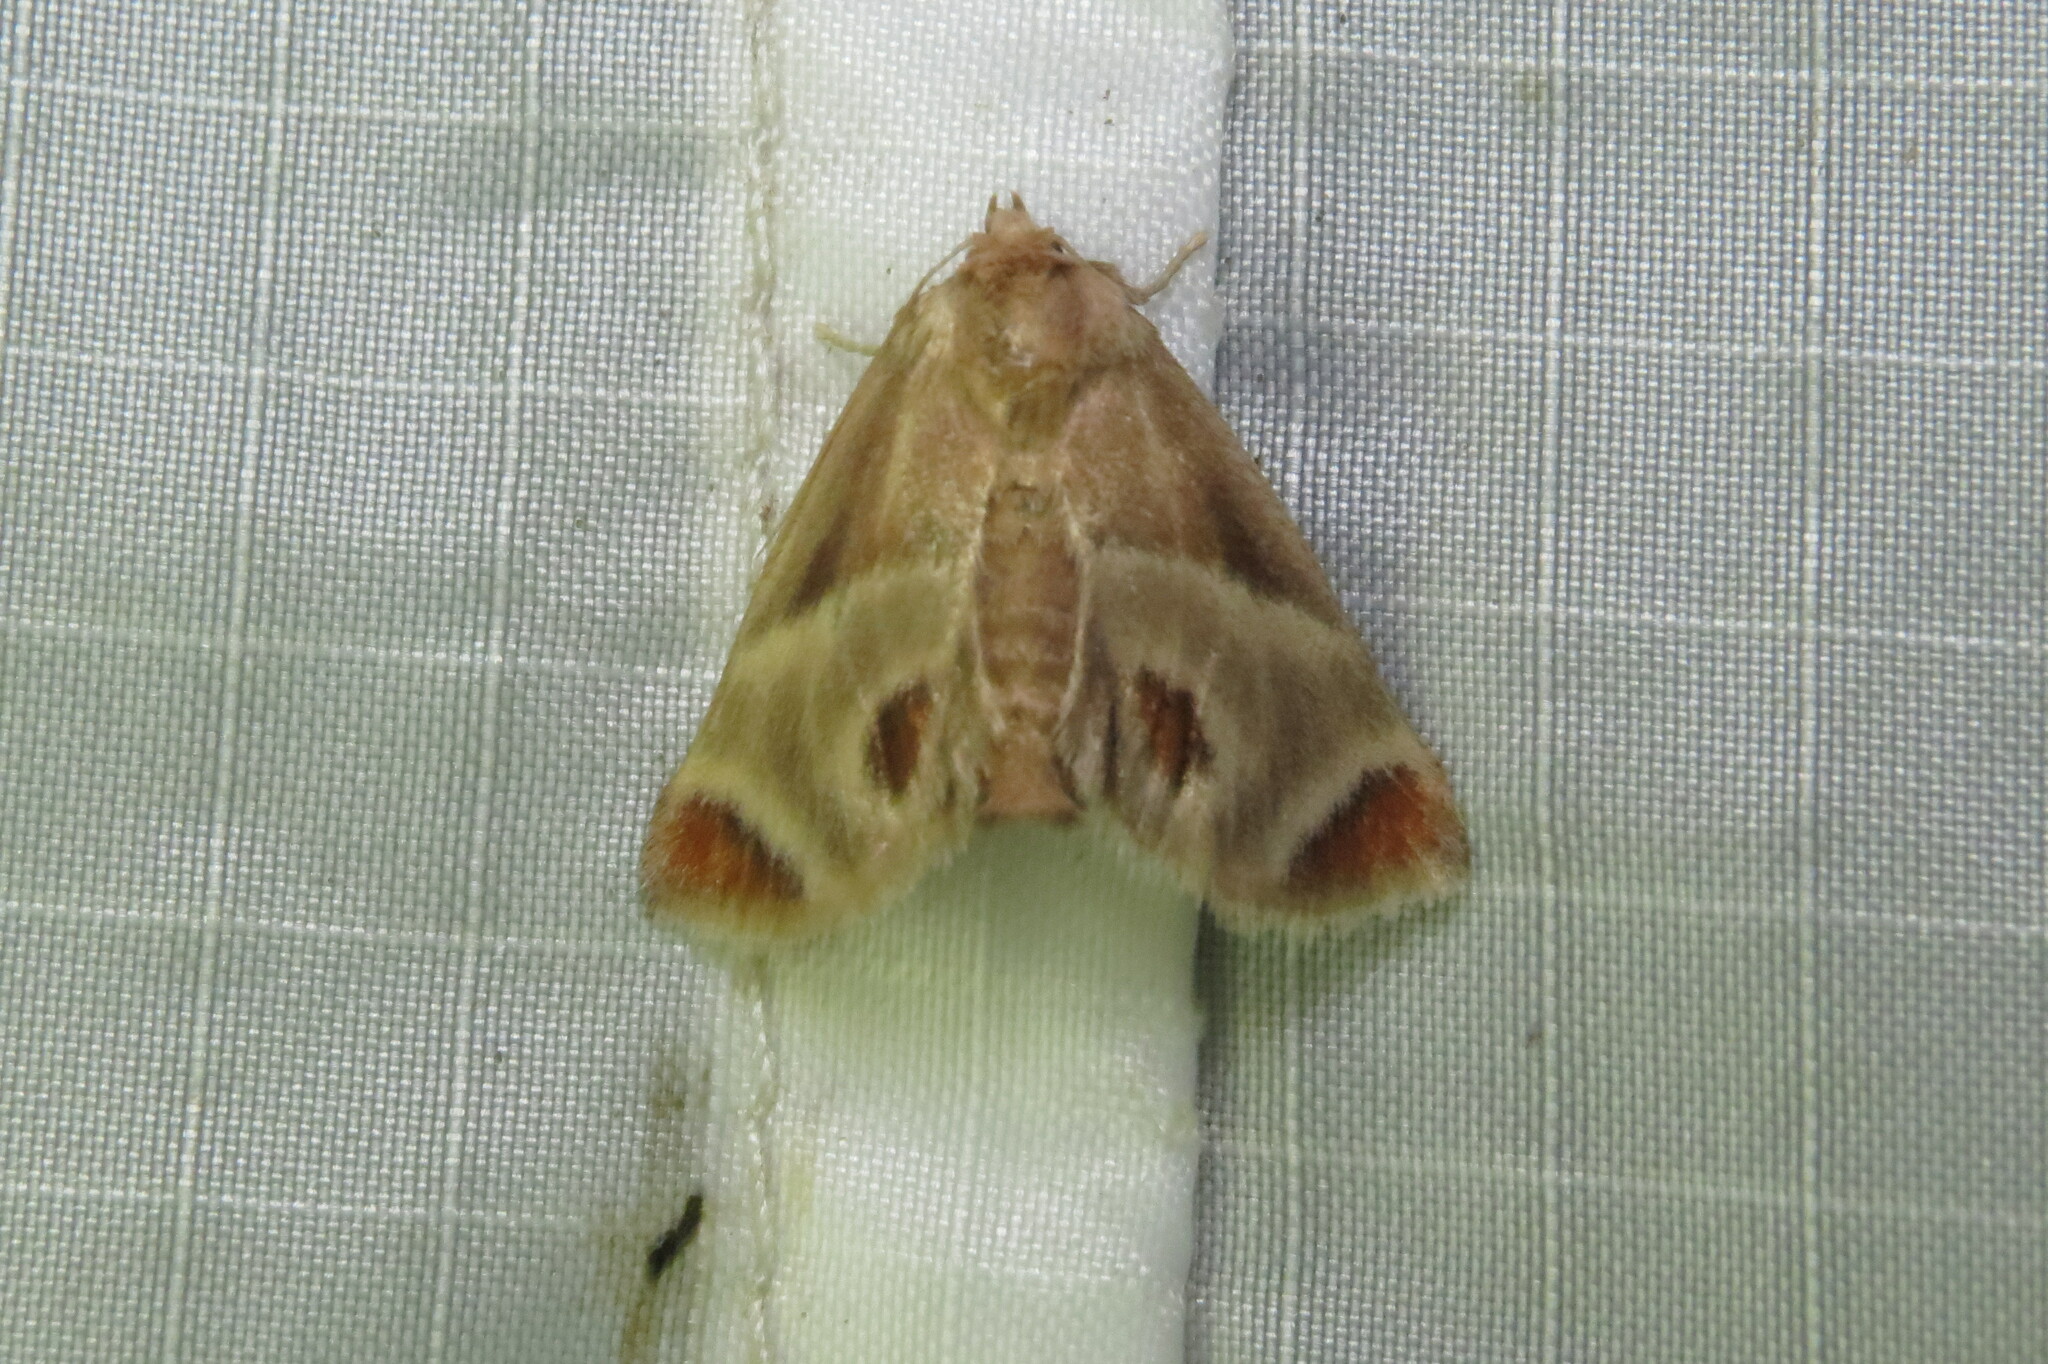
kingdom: Animalia
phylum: Arthropoda
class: Insecta
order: Lepidoptera
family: Limacodidae
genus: Apoda
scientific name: Apoda biguttata
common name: Shagreened slug moth
